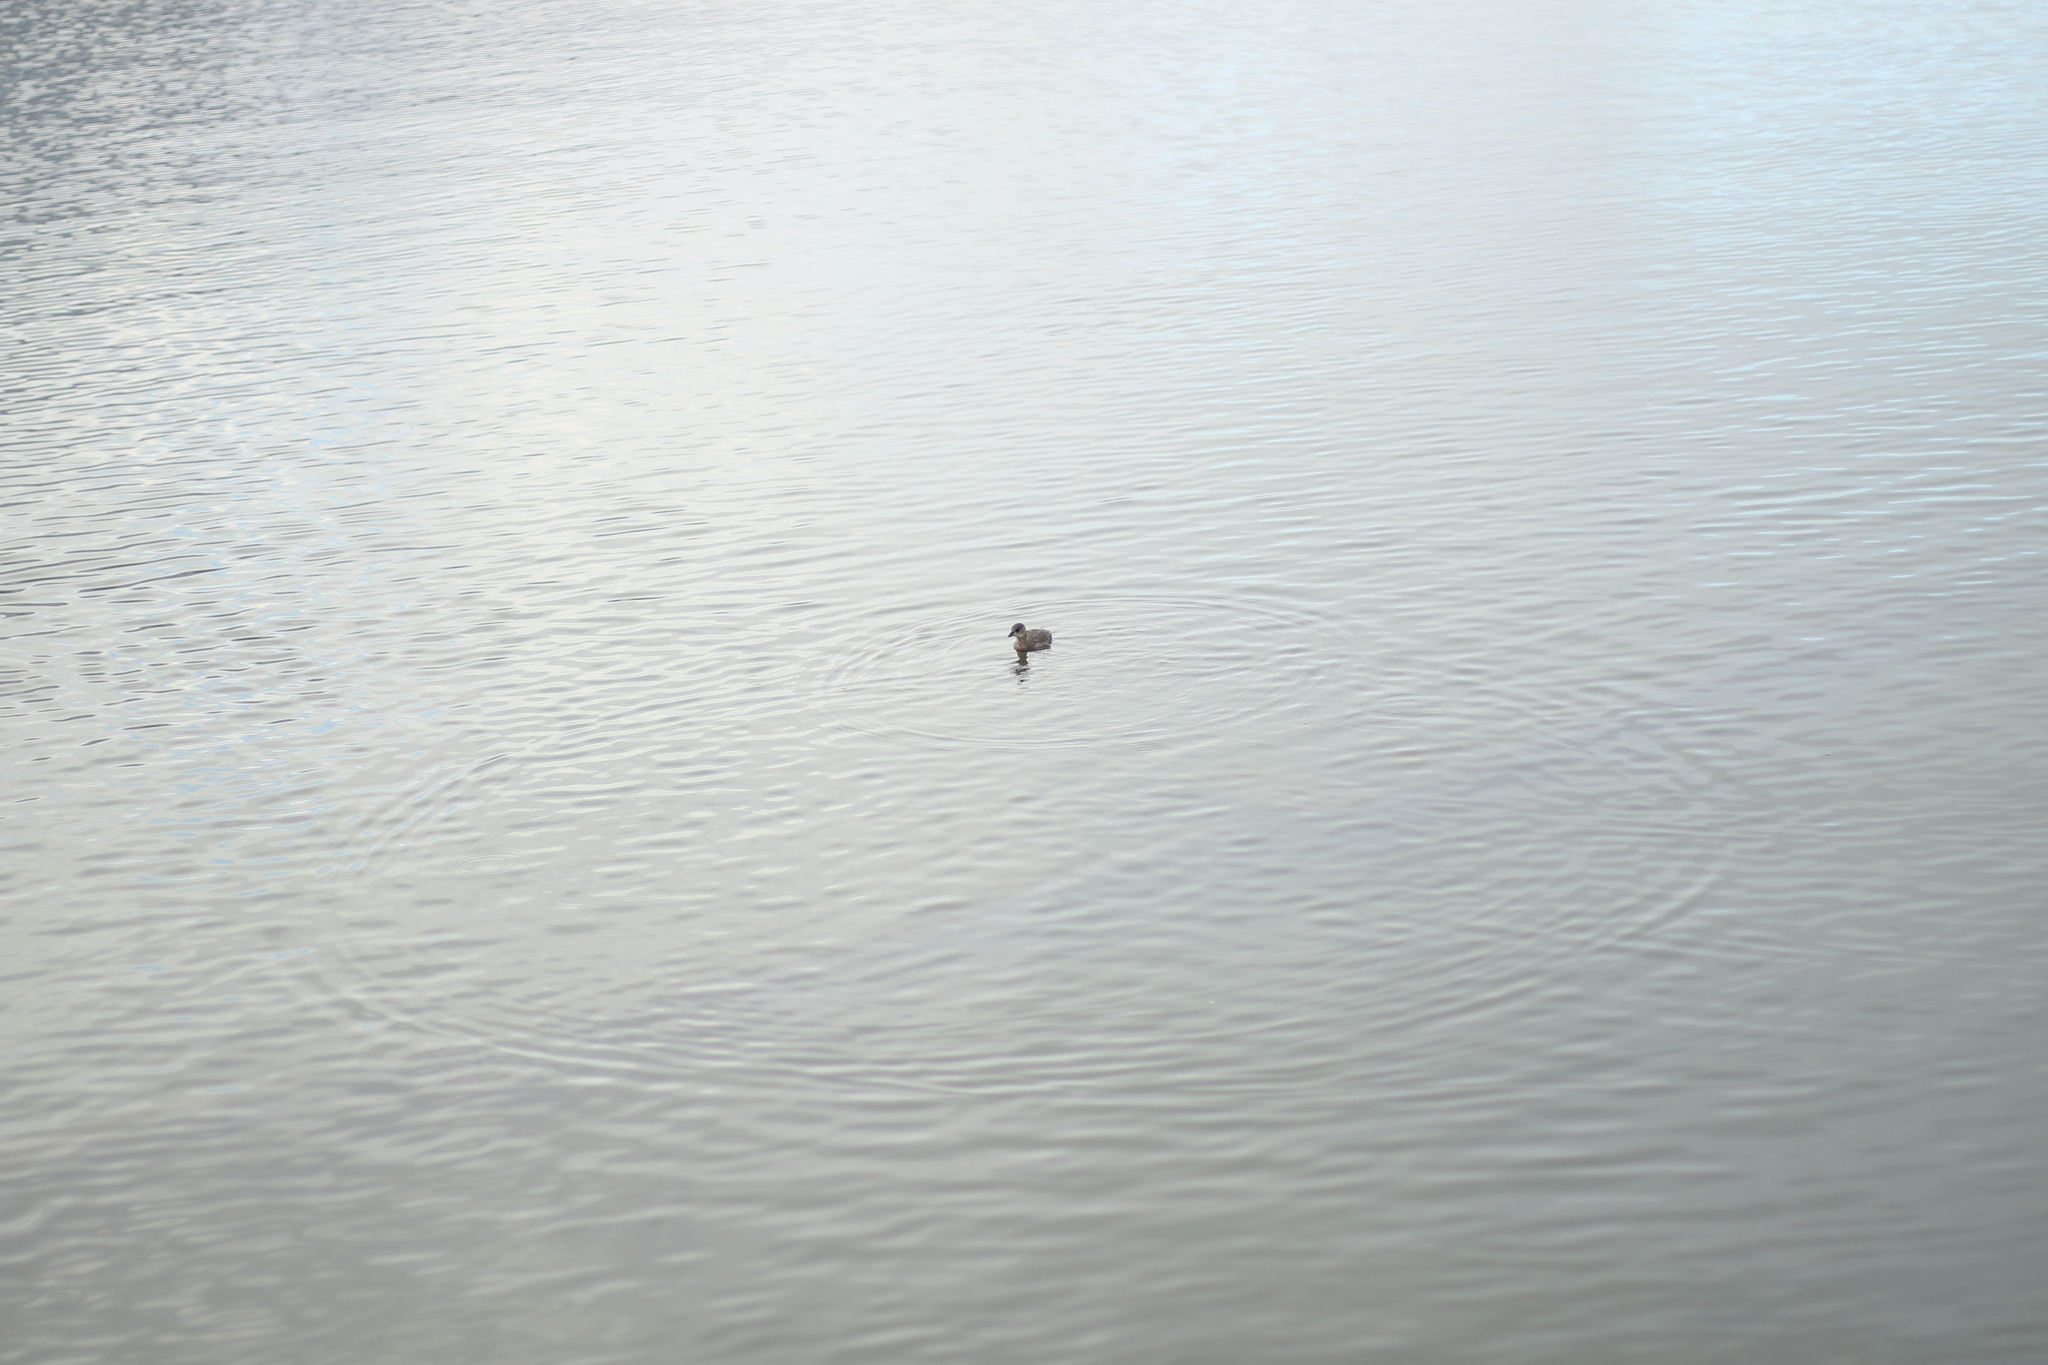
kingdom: Animalia
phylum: Chordata
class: Aves
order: Podicipediformes
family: Podicipedidae
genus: Tachybaptus
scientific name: Tachybaptus ruficollis
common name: Little grebe
